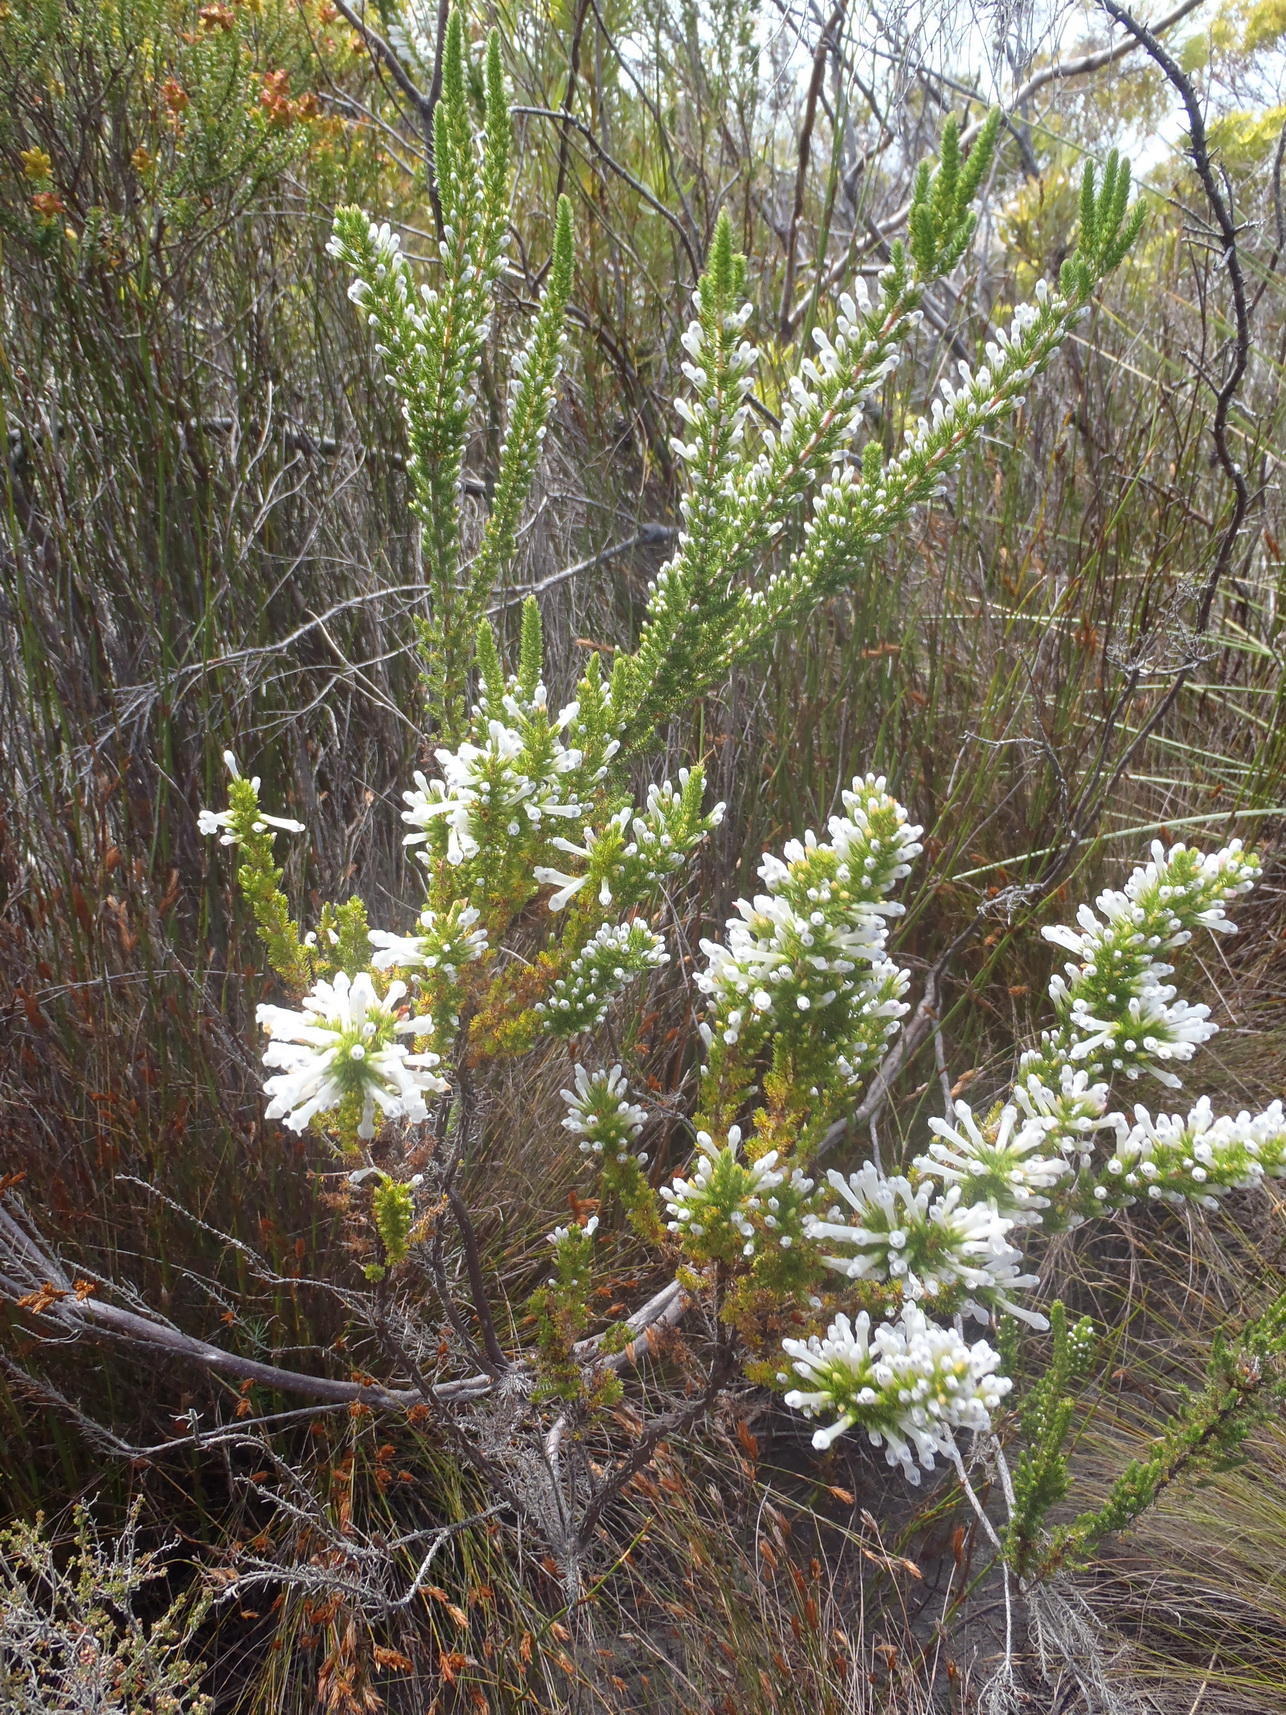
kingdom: Plantae
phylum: Tracheophyta
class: Magnoliopsida
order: Ericales
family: Ericaceae
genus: Erica
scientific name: Erica colorans
